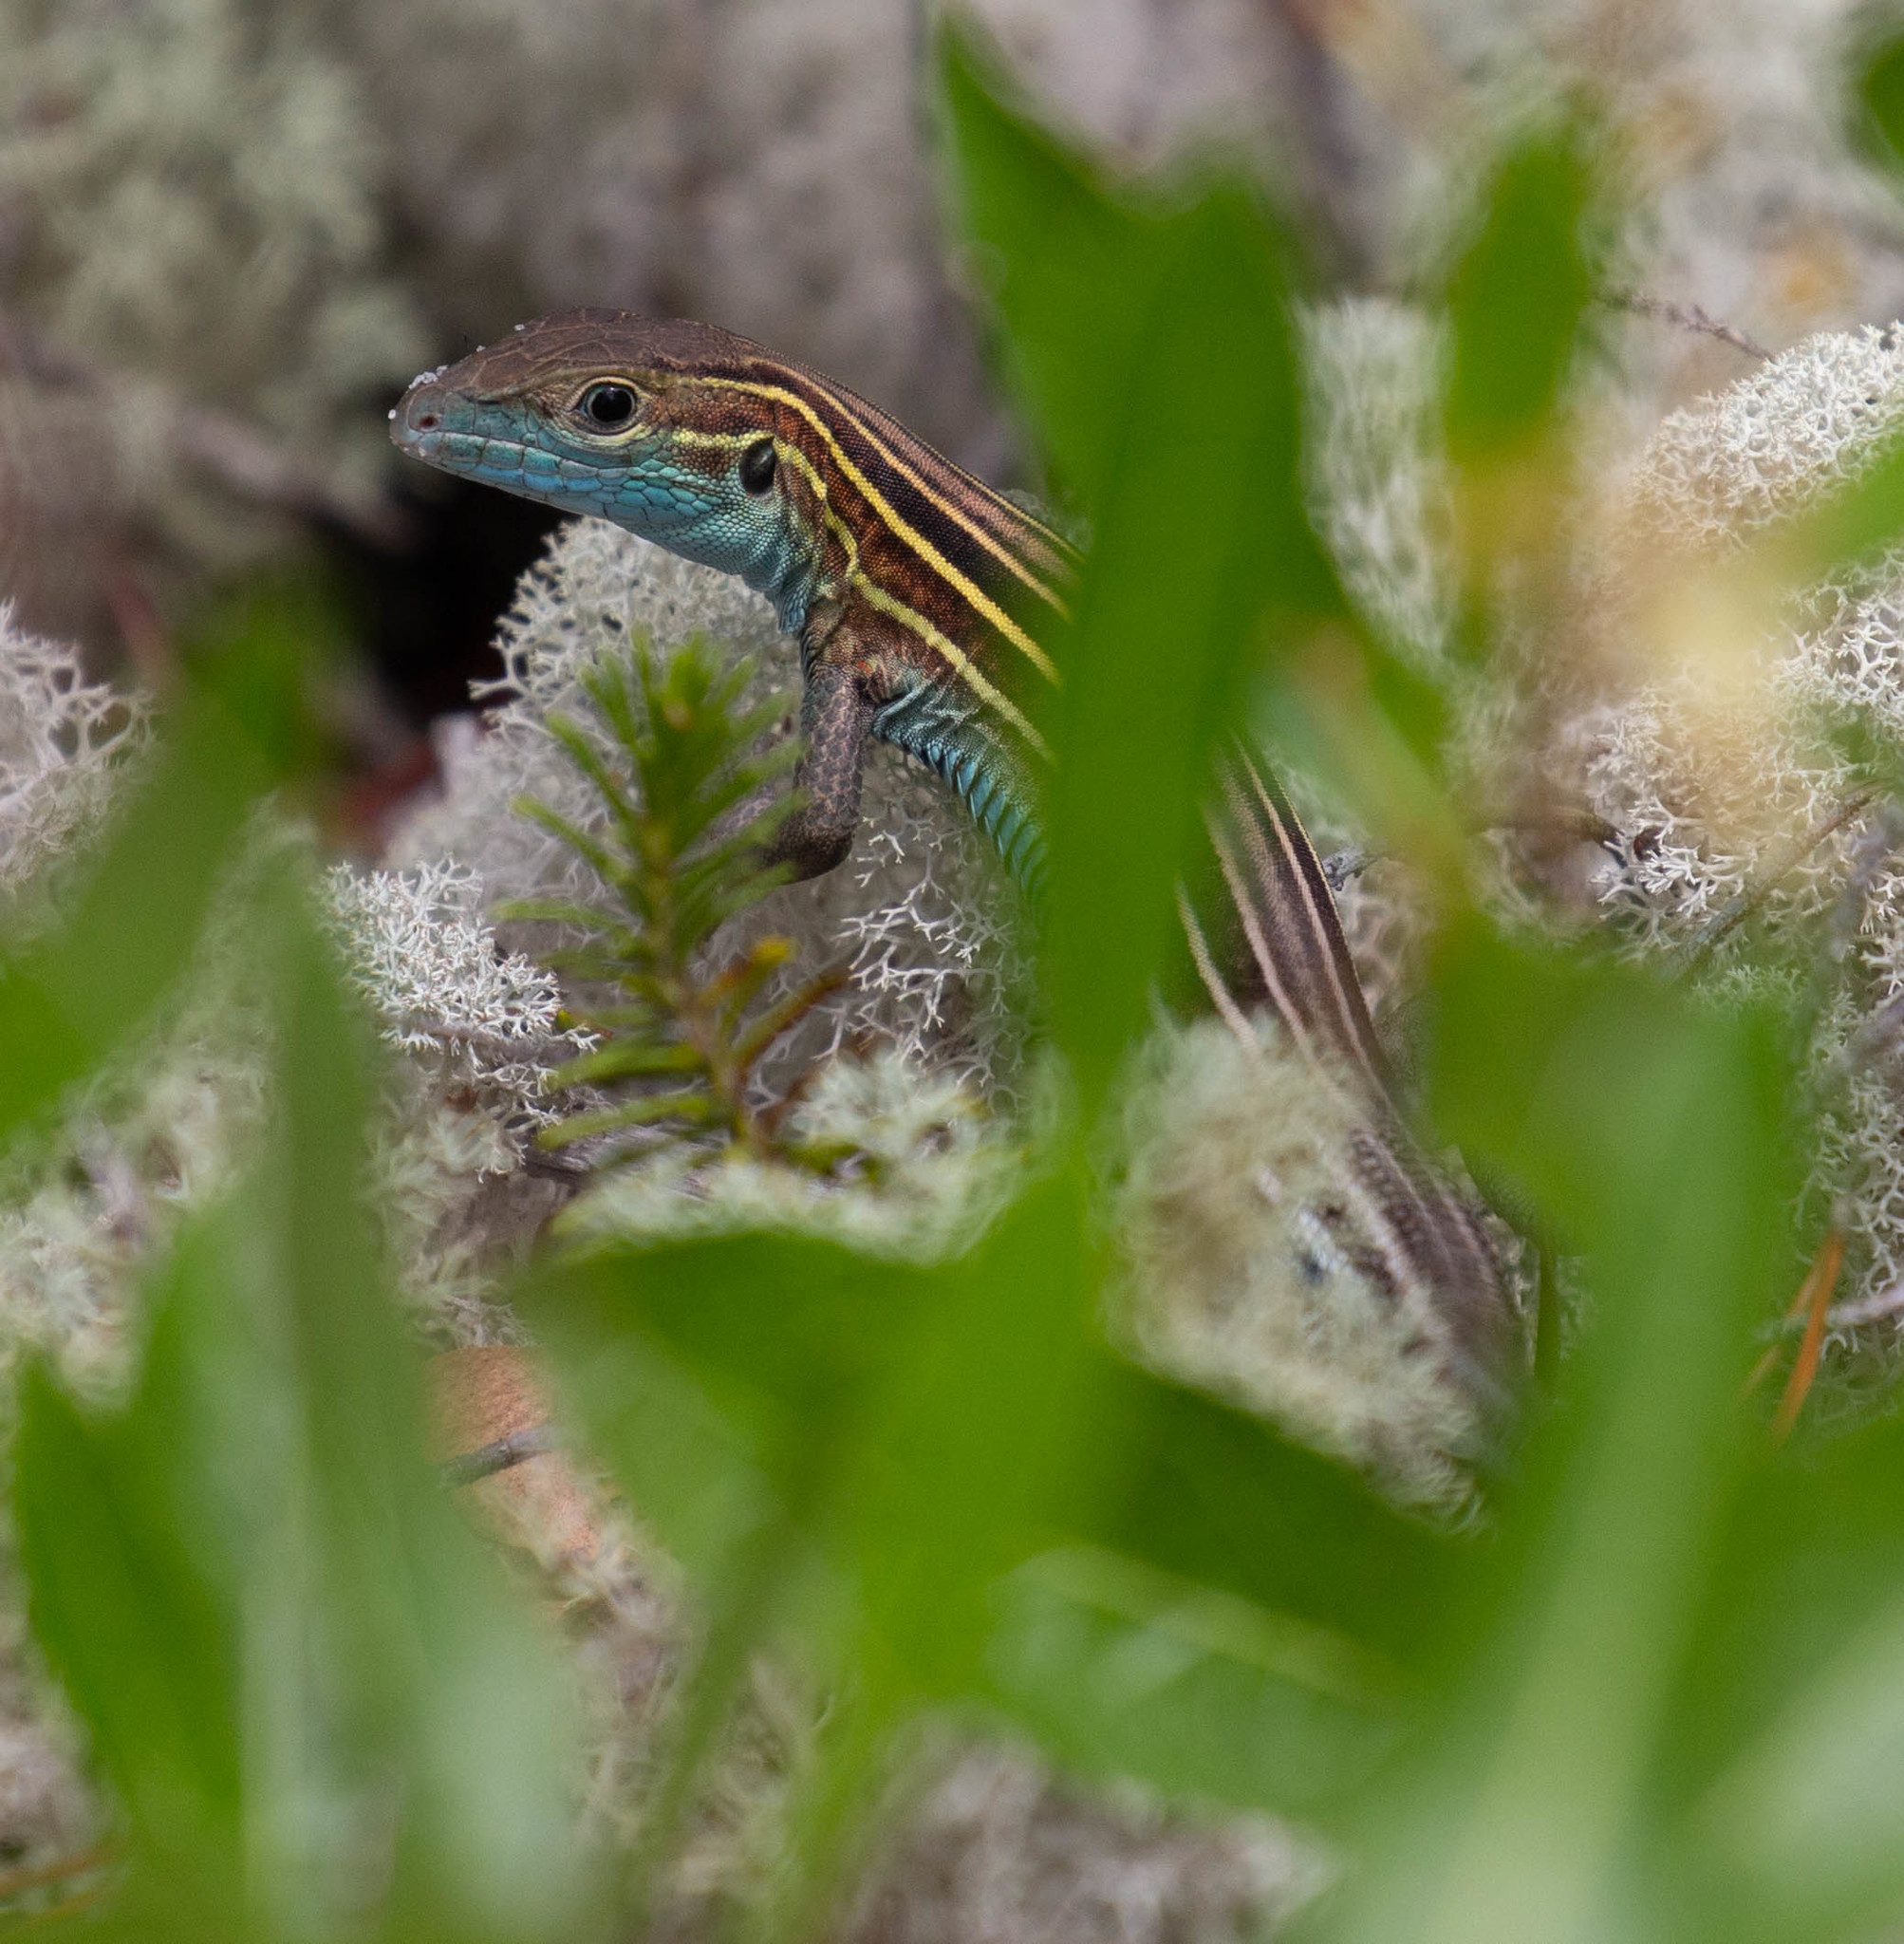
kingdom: Animalia
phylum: Chordata
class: Squamata
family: Teiidae
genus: Aspidoscelis
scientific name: Aspidoscelis sexlineatus
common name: Six-lined racerunner
